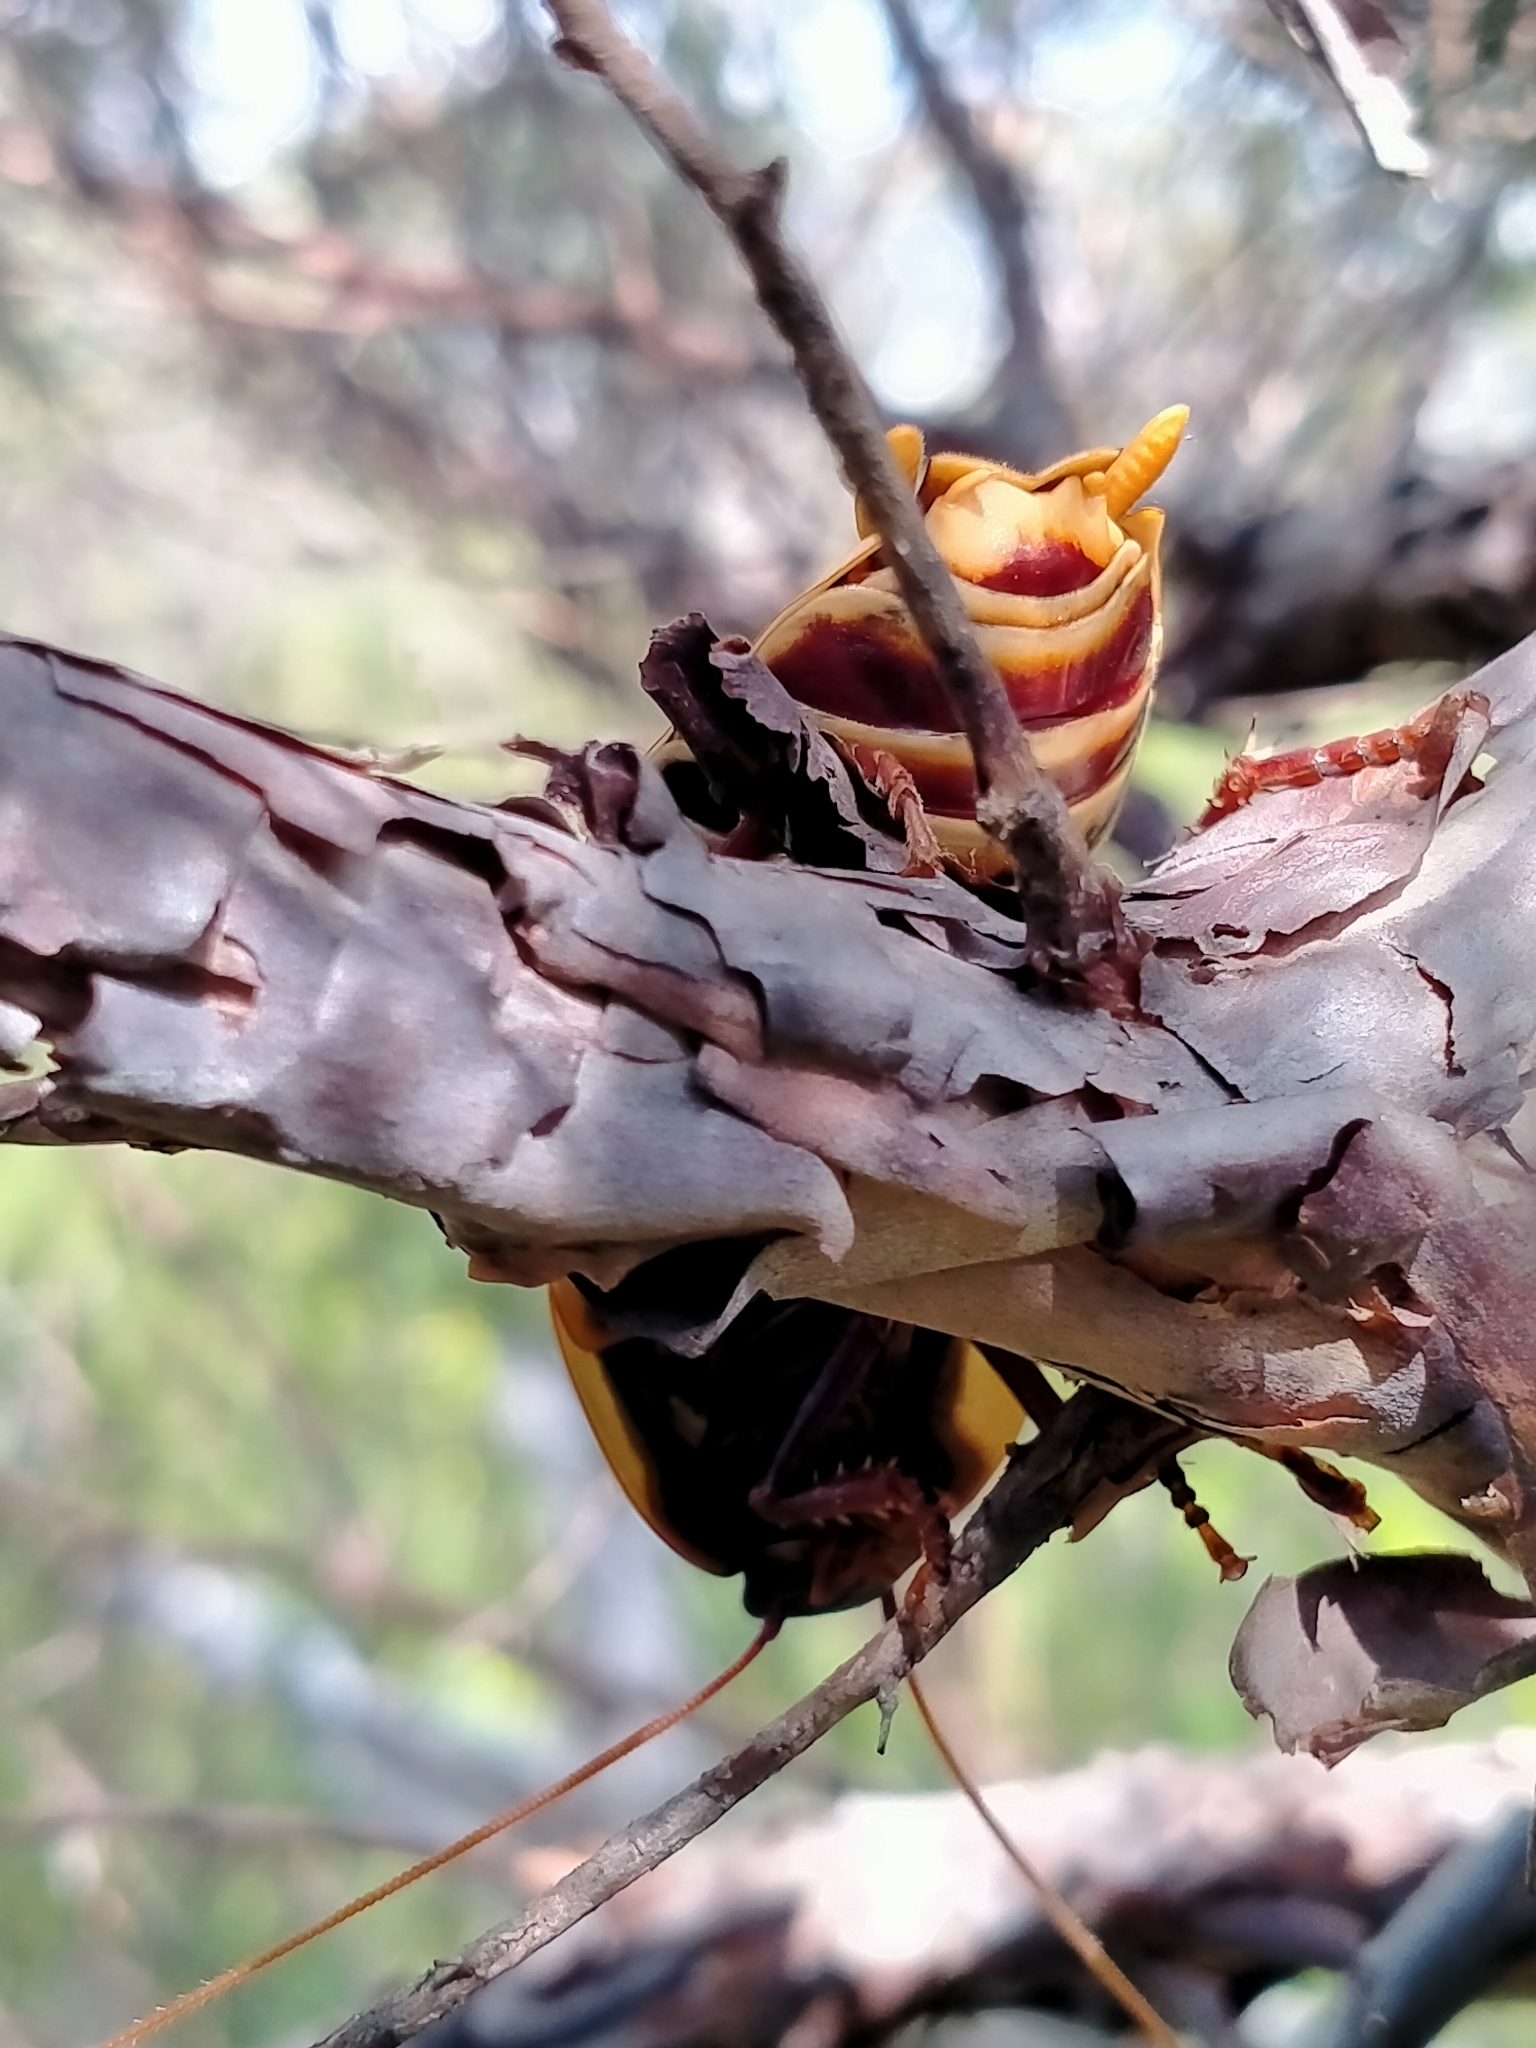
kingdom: Animalia
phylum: Arthropoda
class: Insecta
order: Blattodea
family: Blattidae
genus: Polyzosteria
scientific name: Polyzosteria limbata
